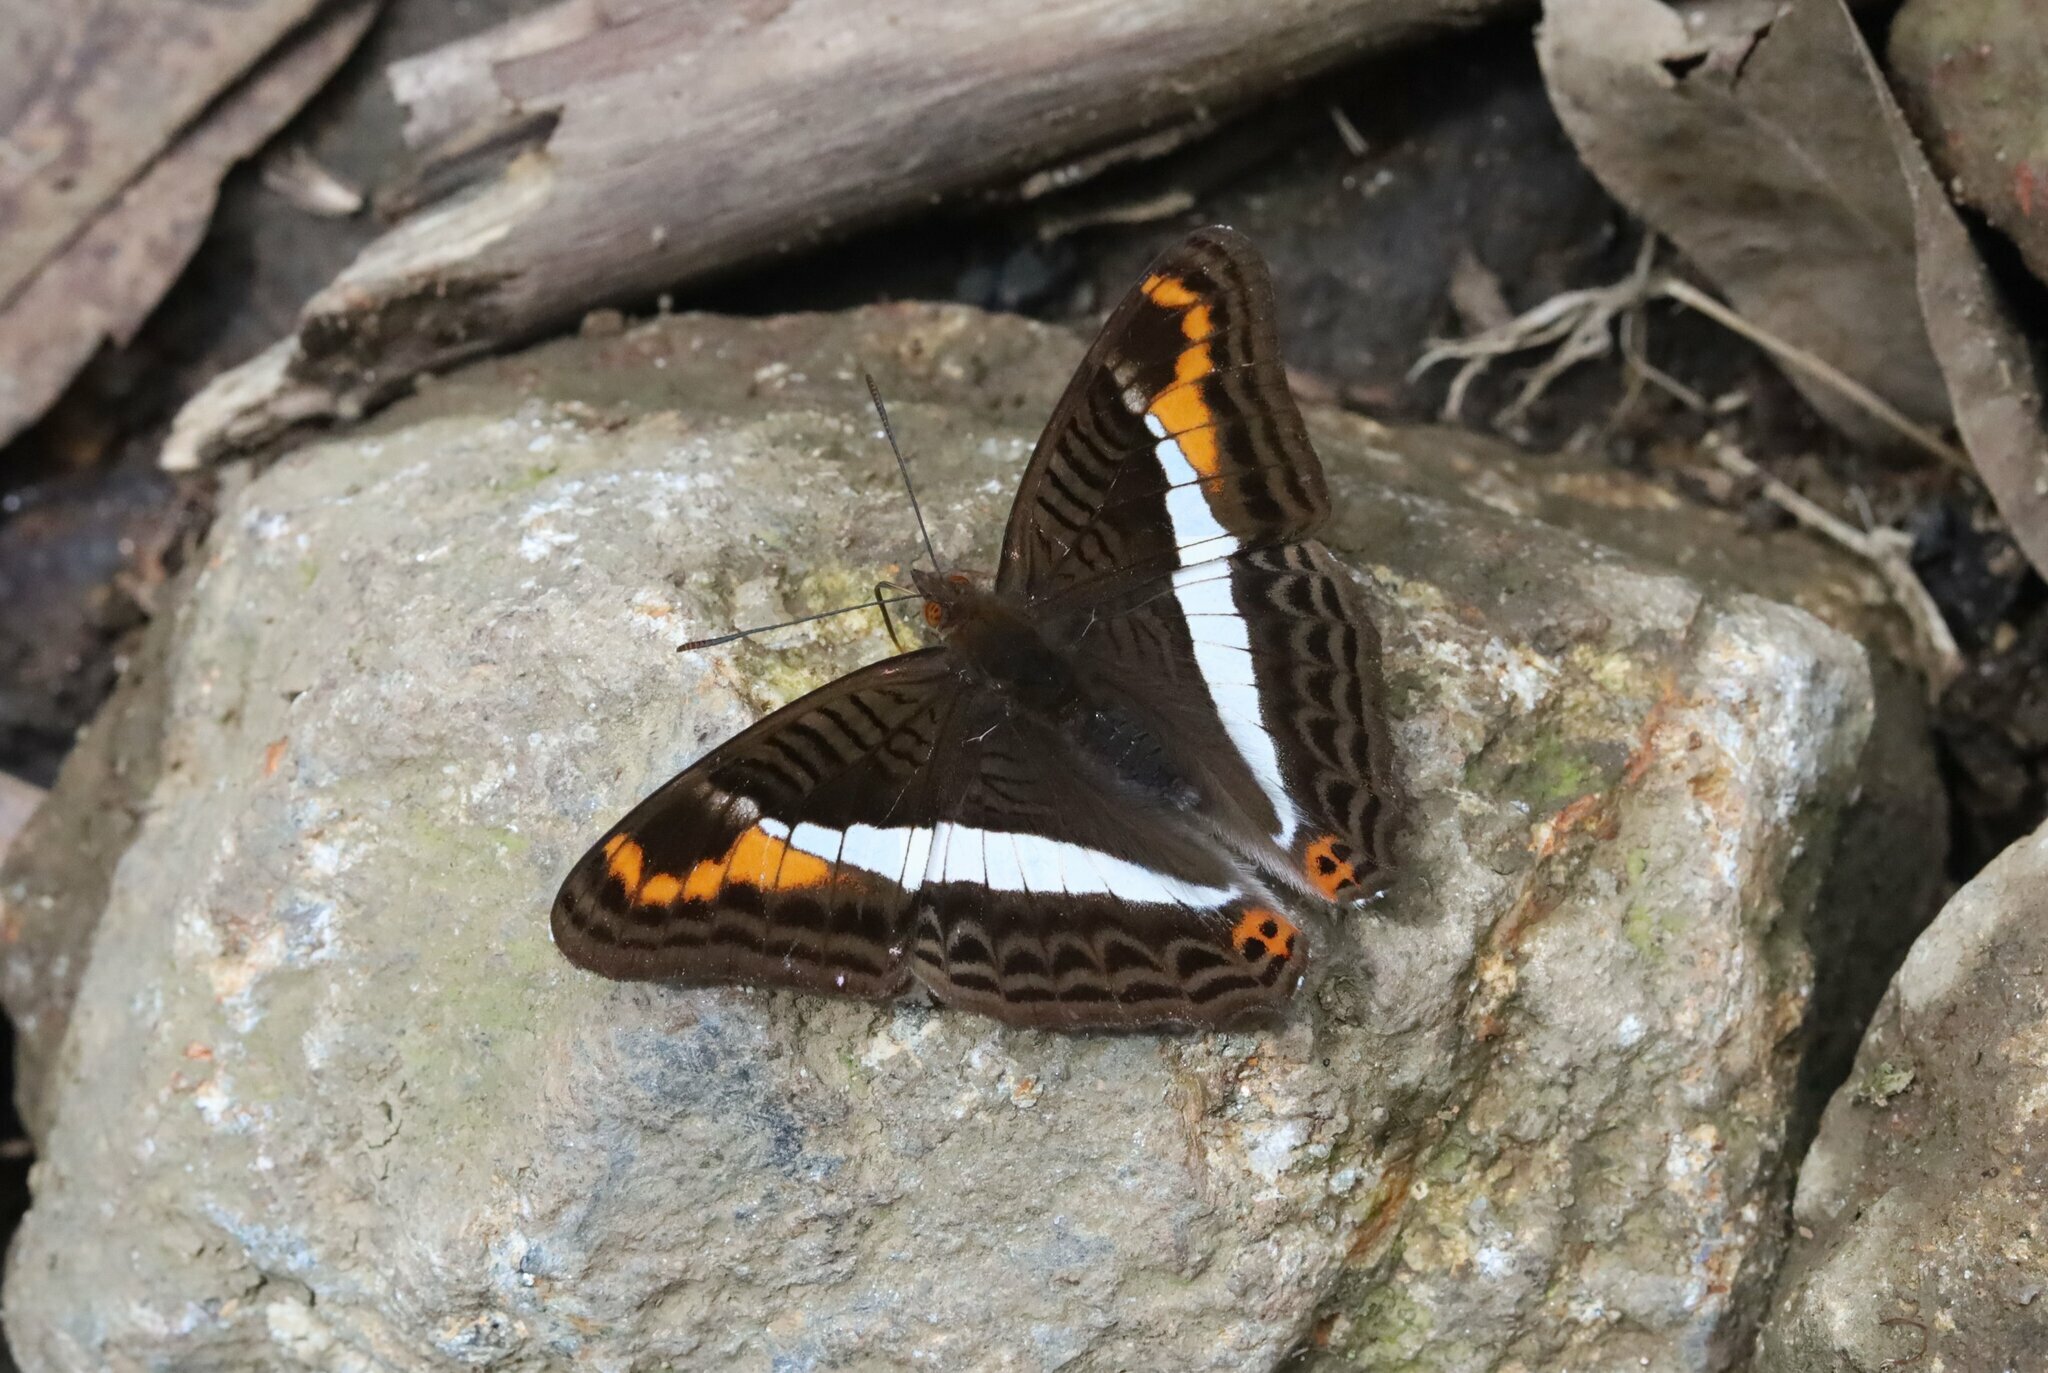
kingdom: Animalia
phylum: Arthropoda
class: Insecta
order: Lepidoptera
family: Nymphalidae
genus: Limenitis
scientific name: Limenitis corcyra
